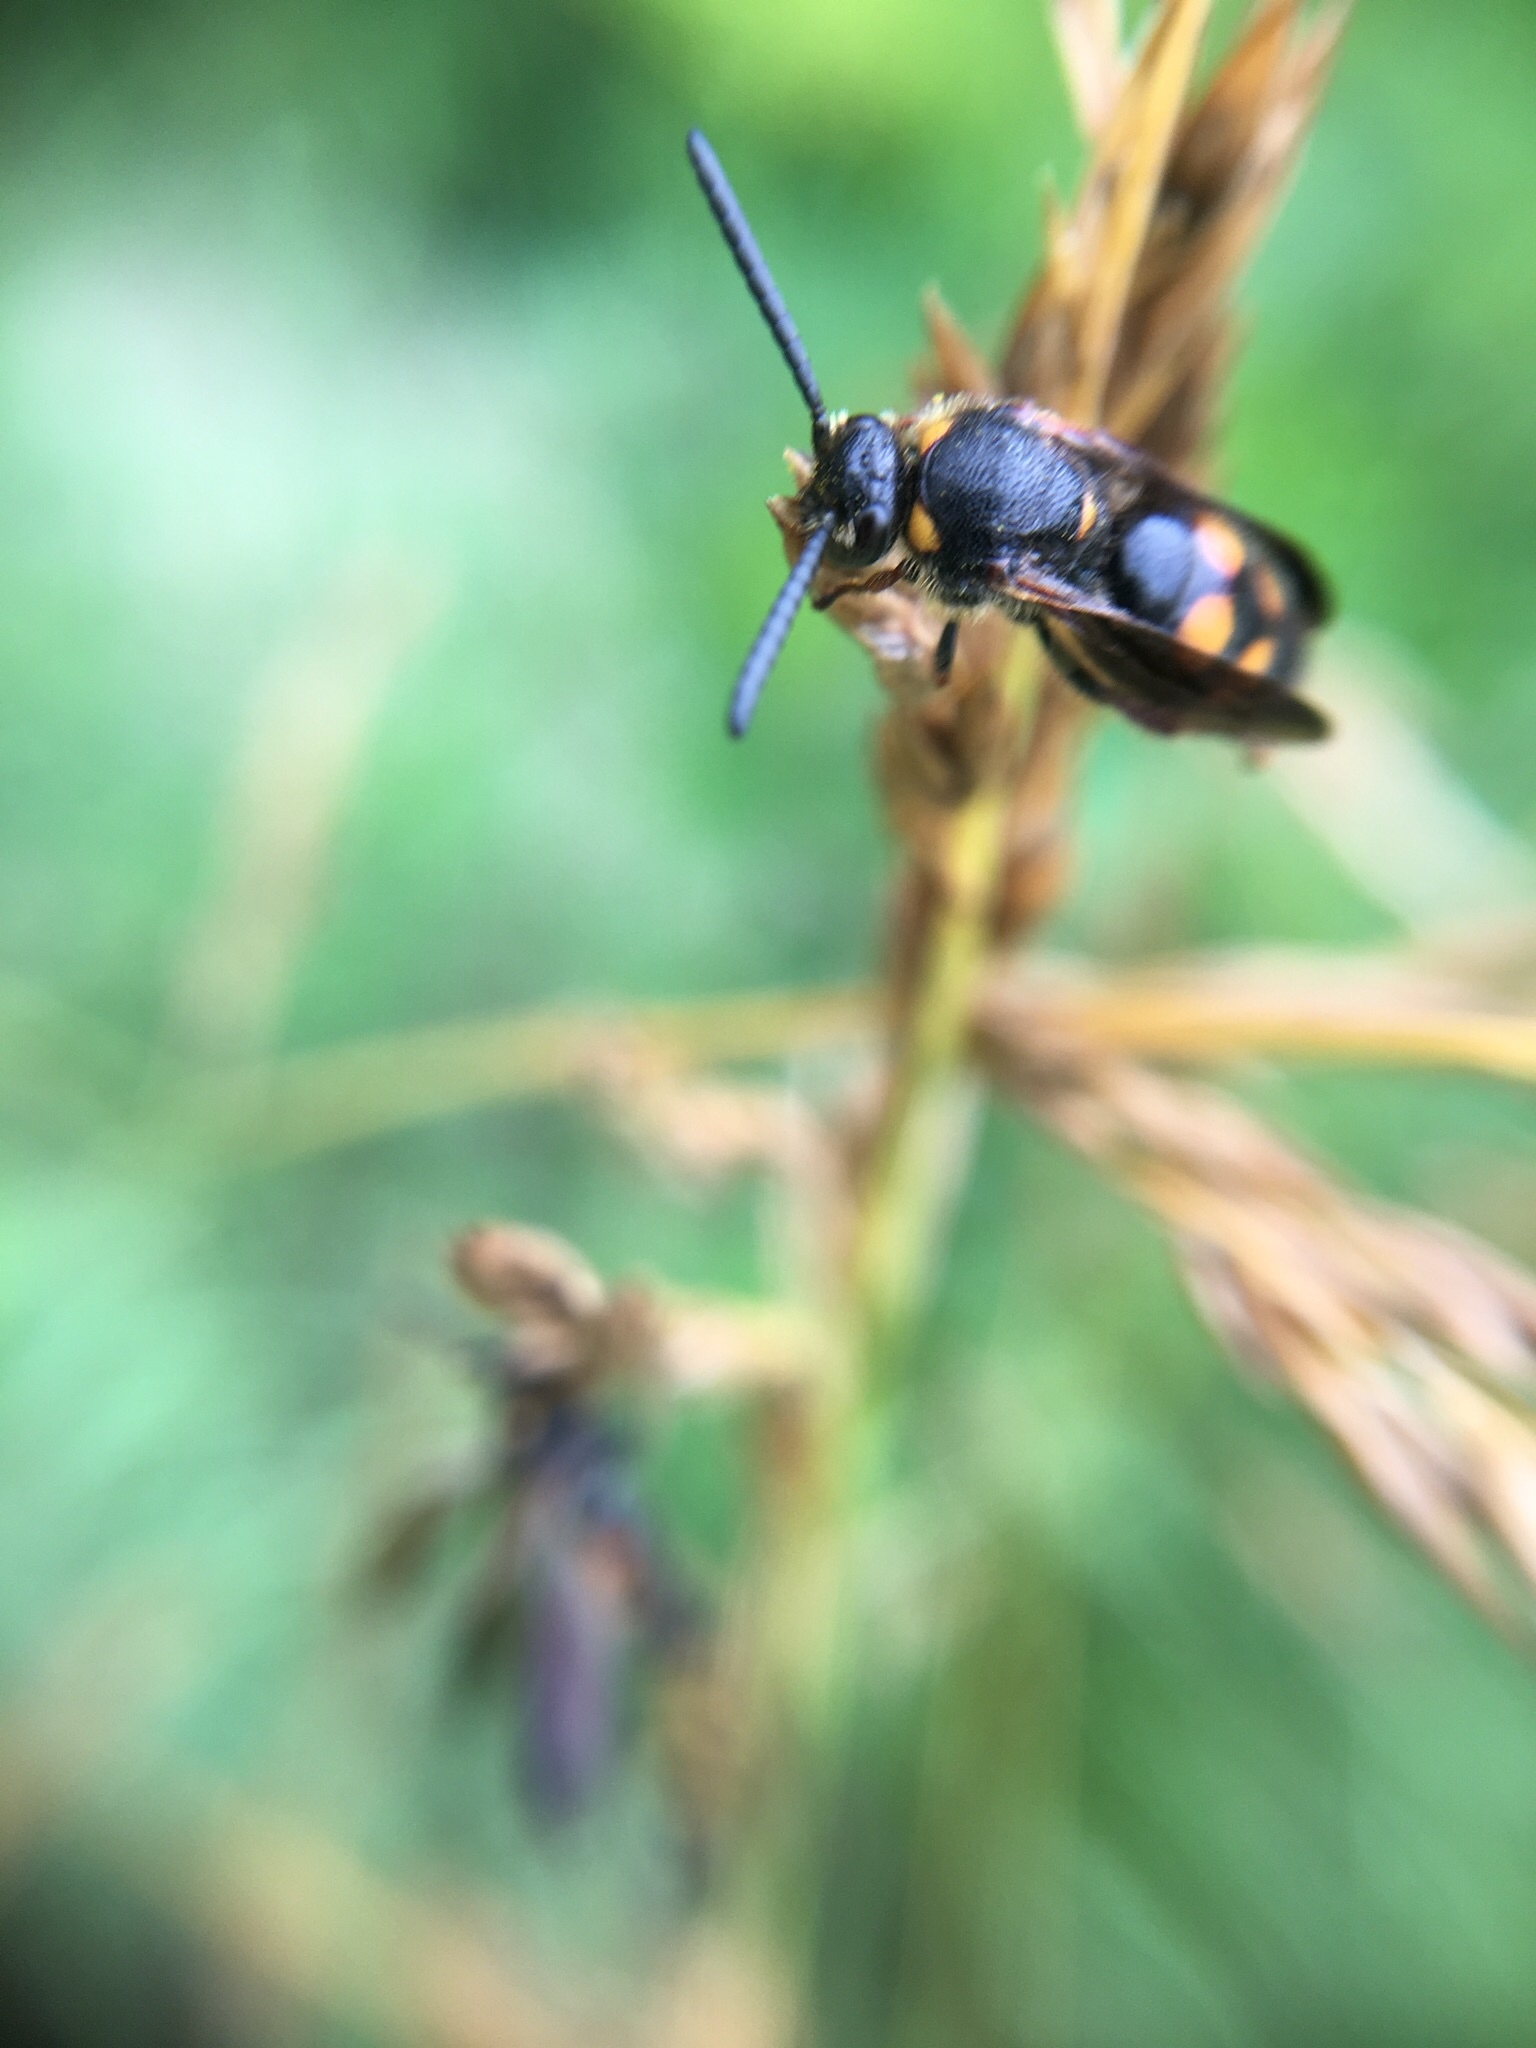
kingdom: Animalia
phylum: Arthropoda
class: Insecta
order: Hymenoptera
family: Scoliidae
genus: Scolia
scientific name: Scolia nobilitata
